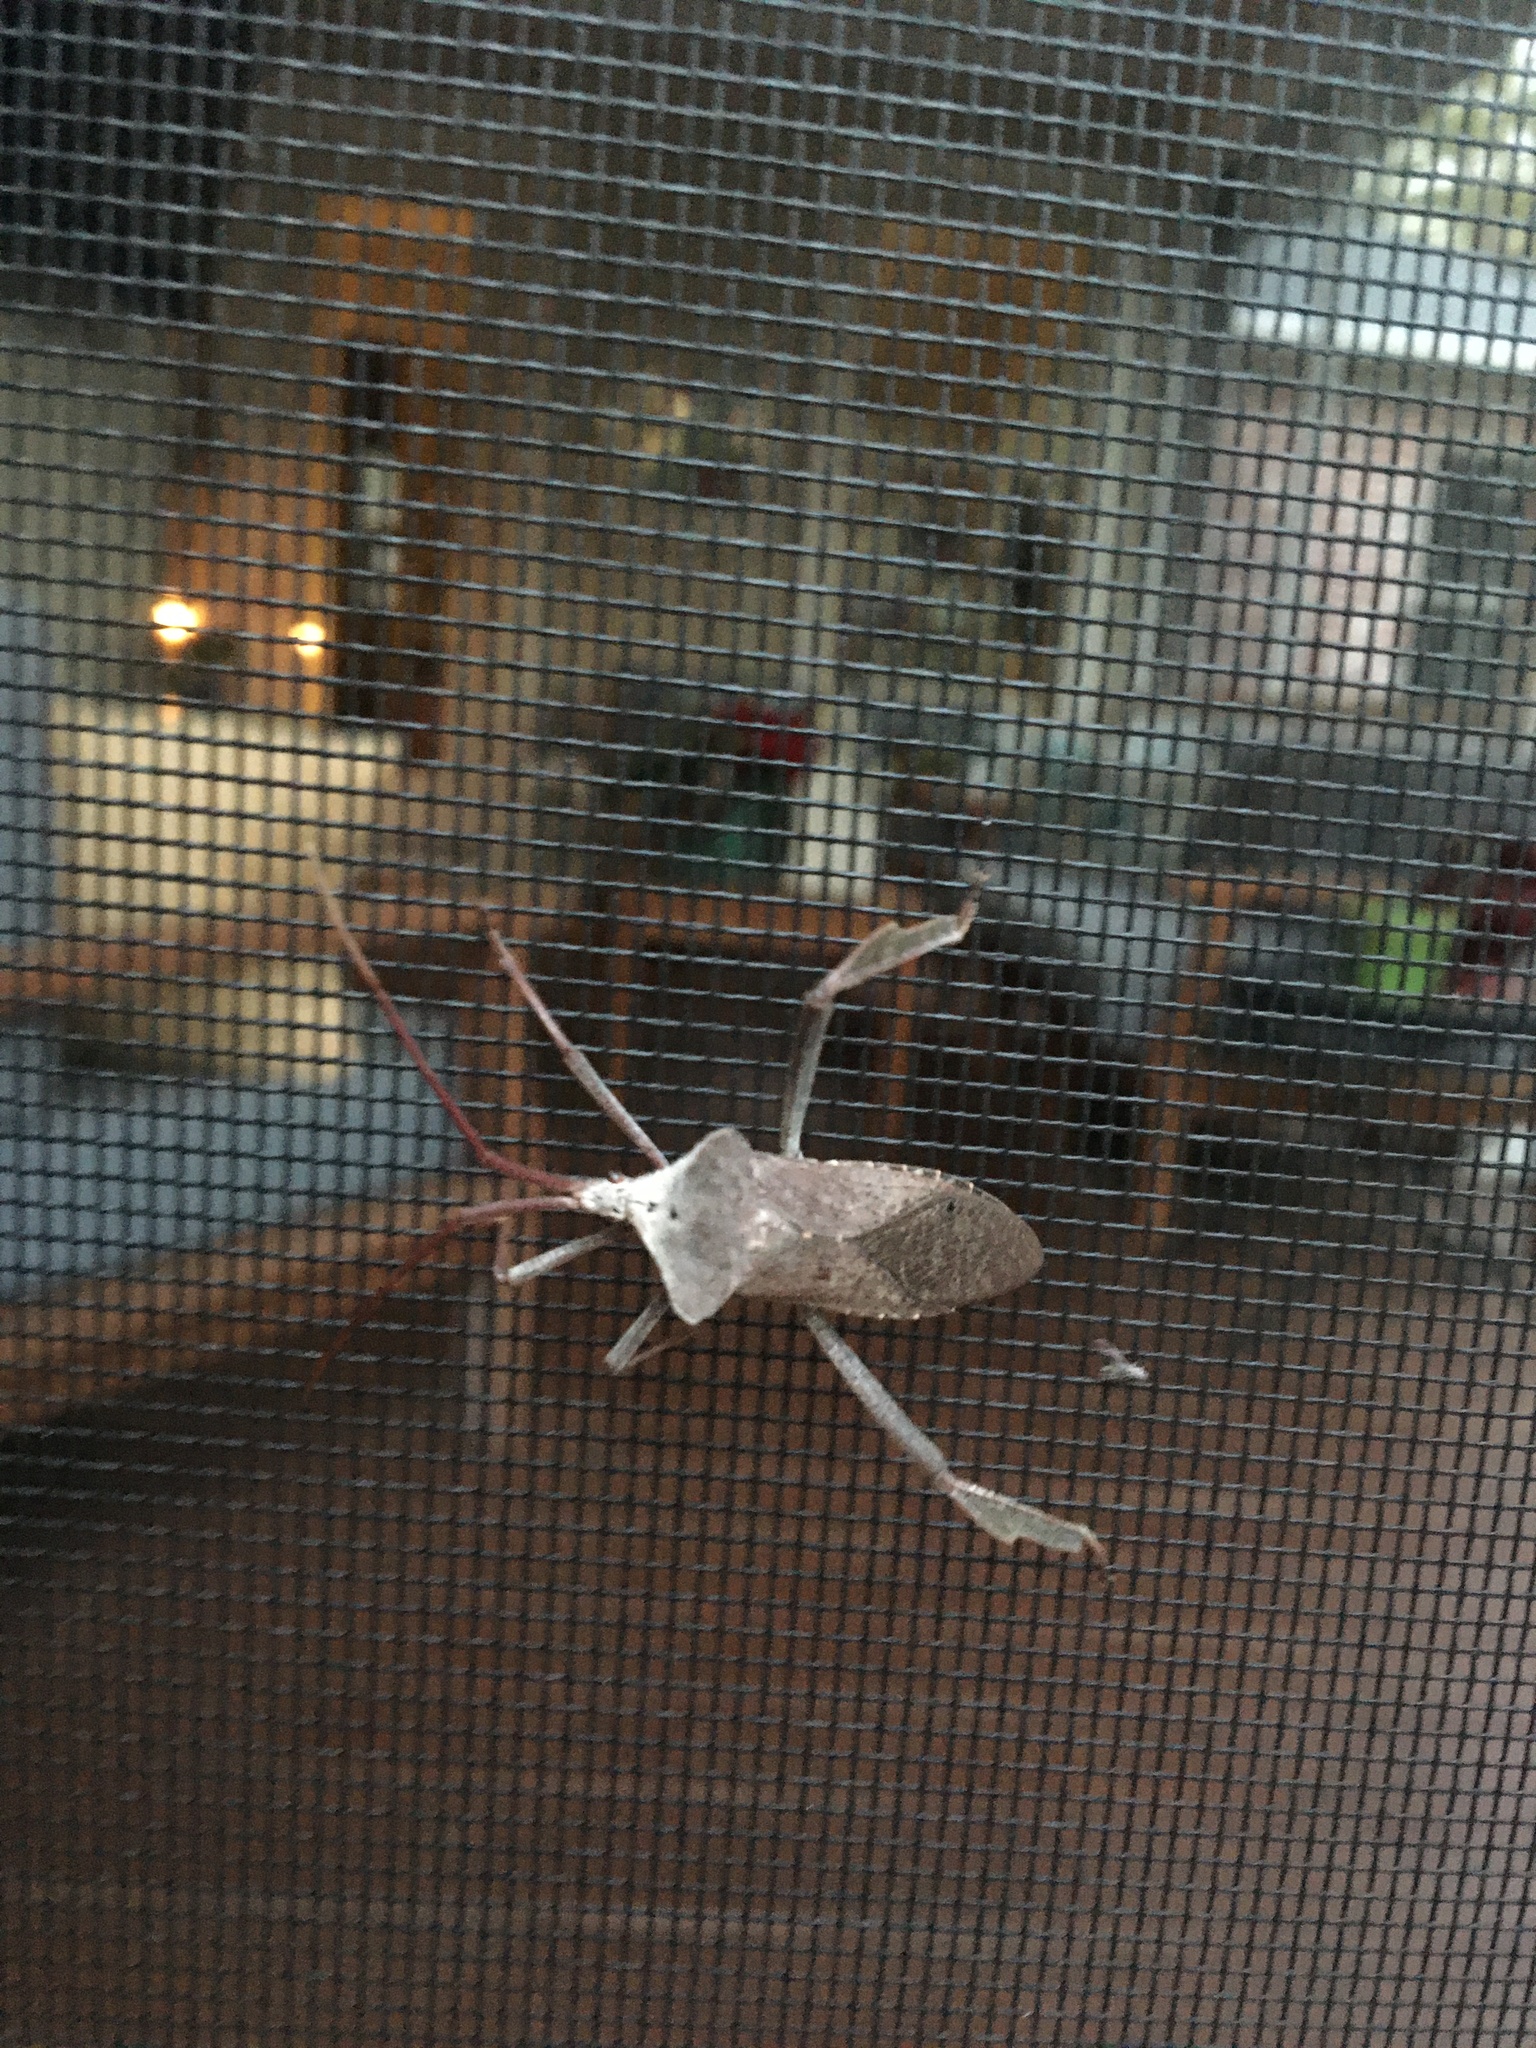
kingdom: Animalia
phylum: Arthropoda
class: Insecta
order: Hemiptera
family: Coreidae
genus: Acanthocephala
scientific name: Acanthocephala declivis
